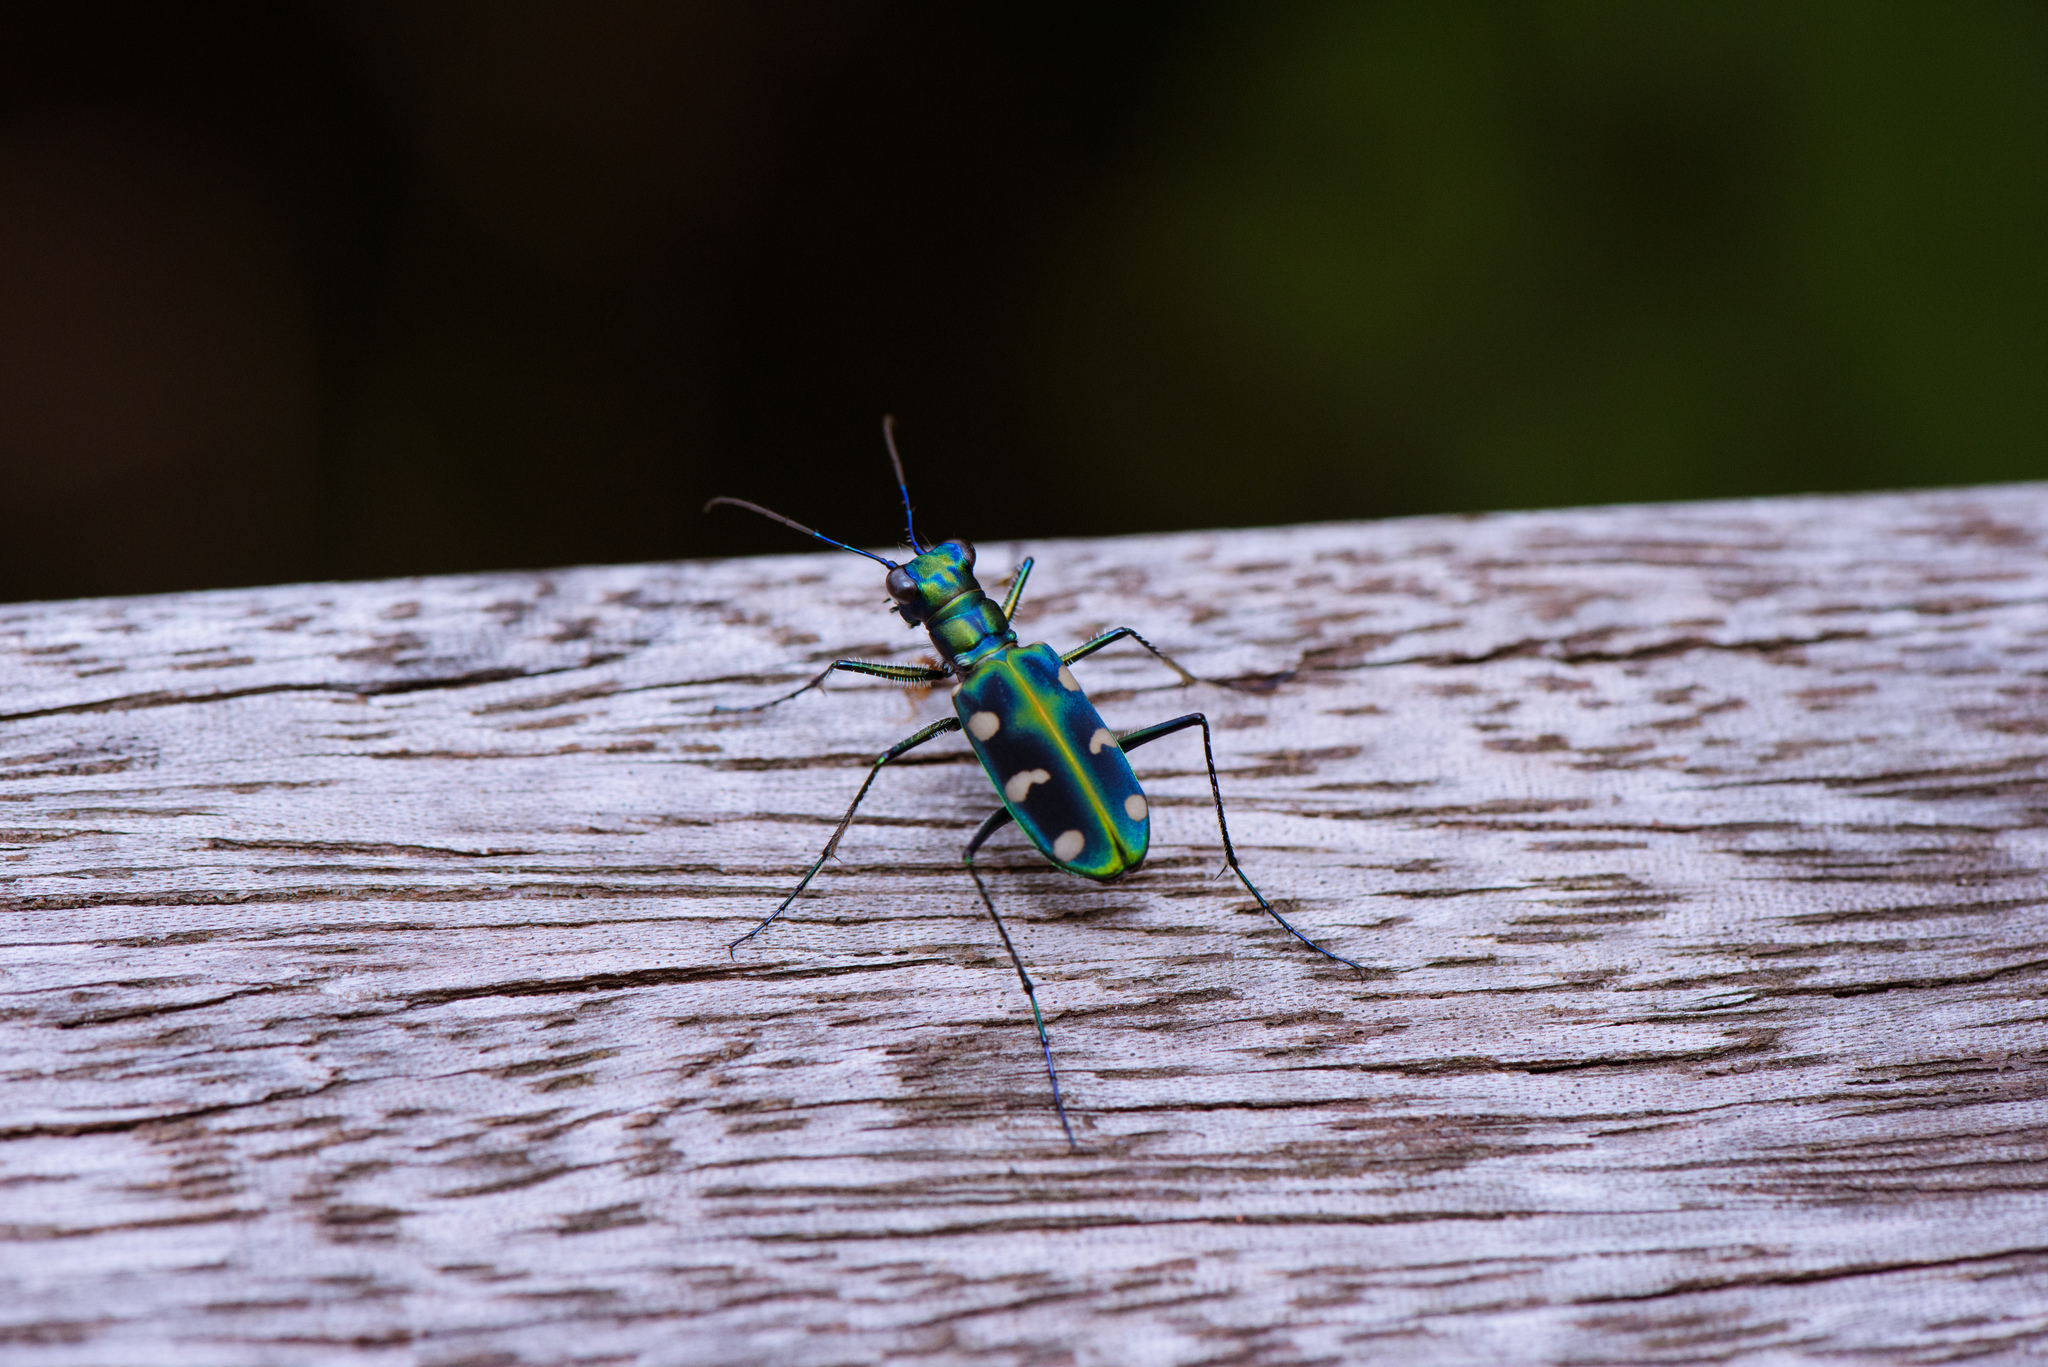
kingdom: Animalia
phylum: Arthropoda
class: Insecta
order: Coleoptera
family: Carabidae
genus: Cicindela
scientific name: Cicindela batesi
